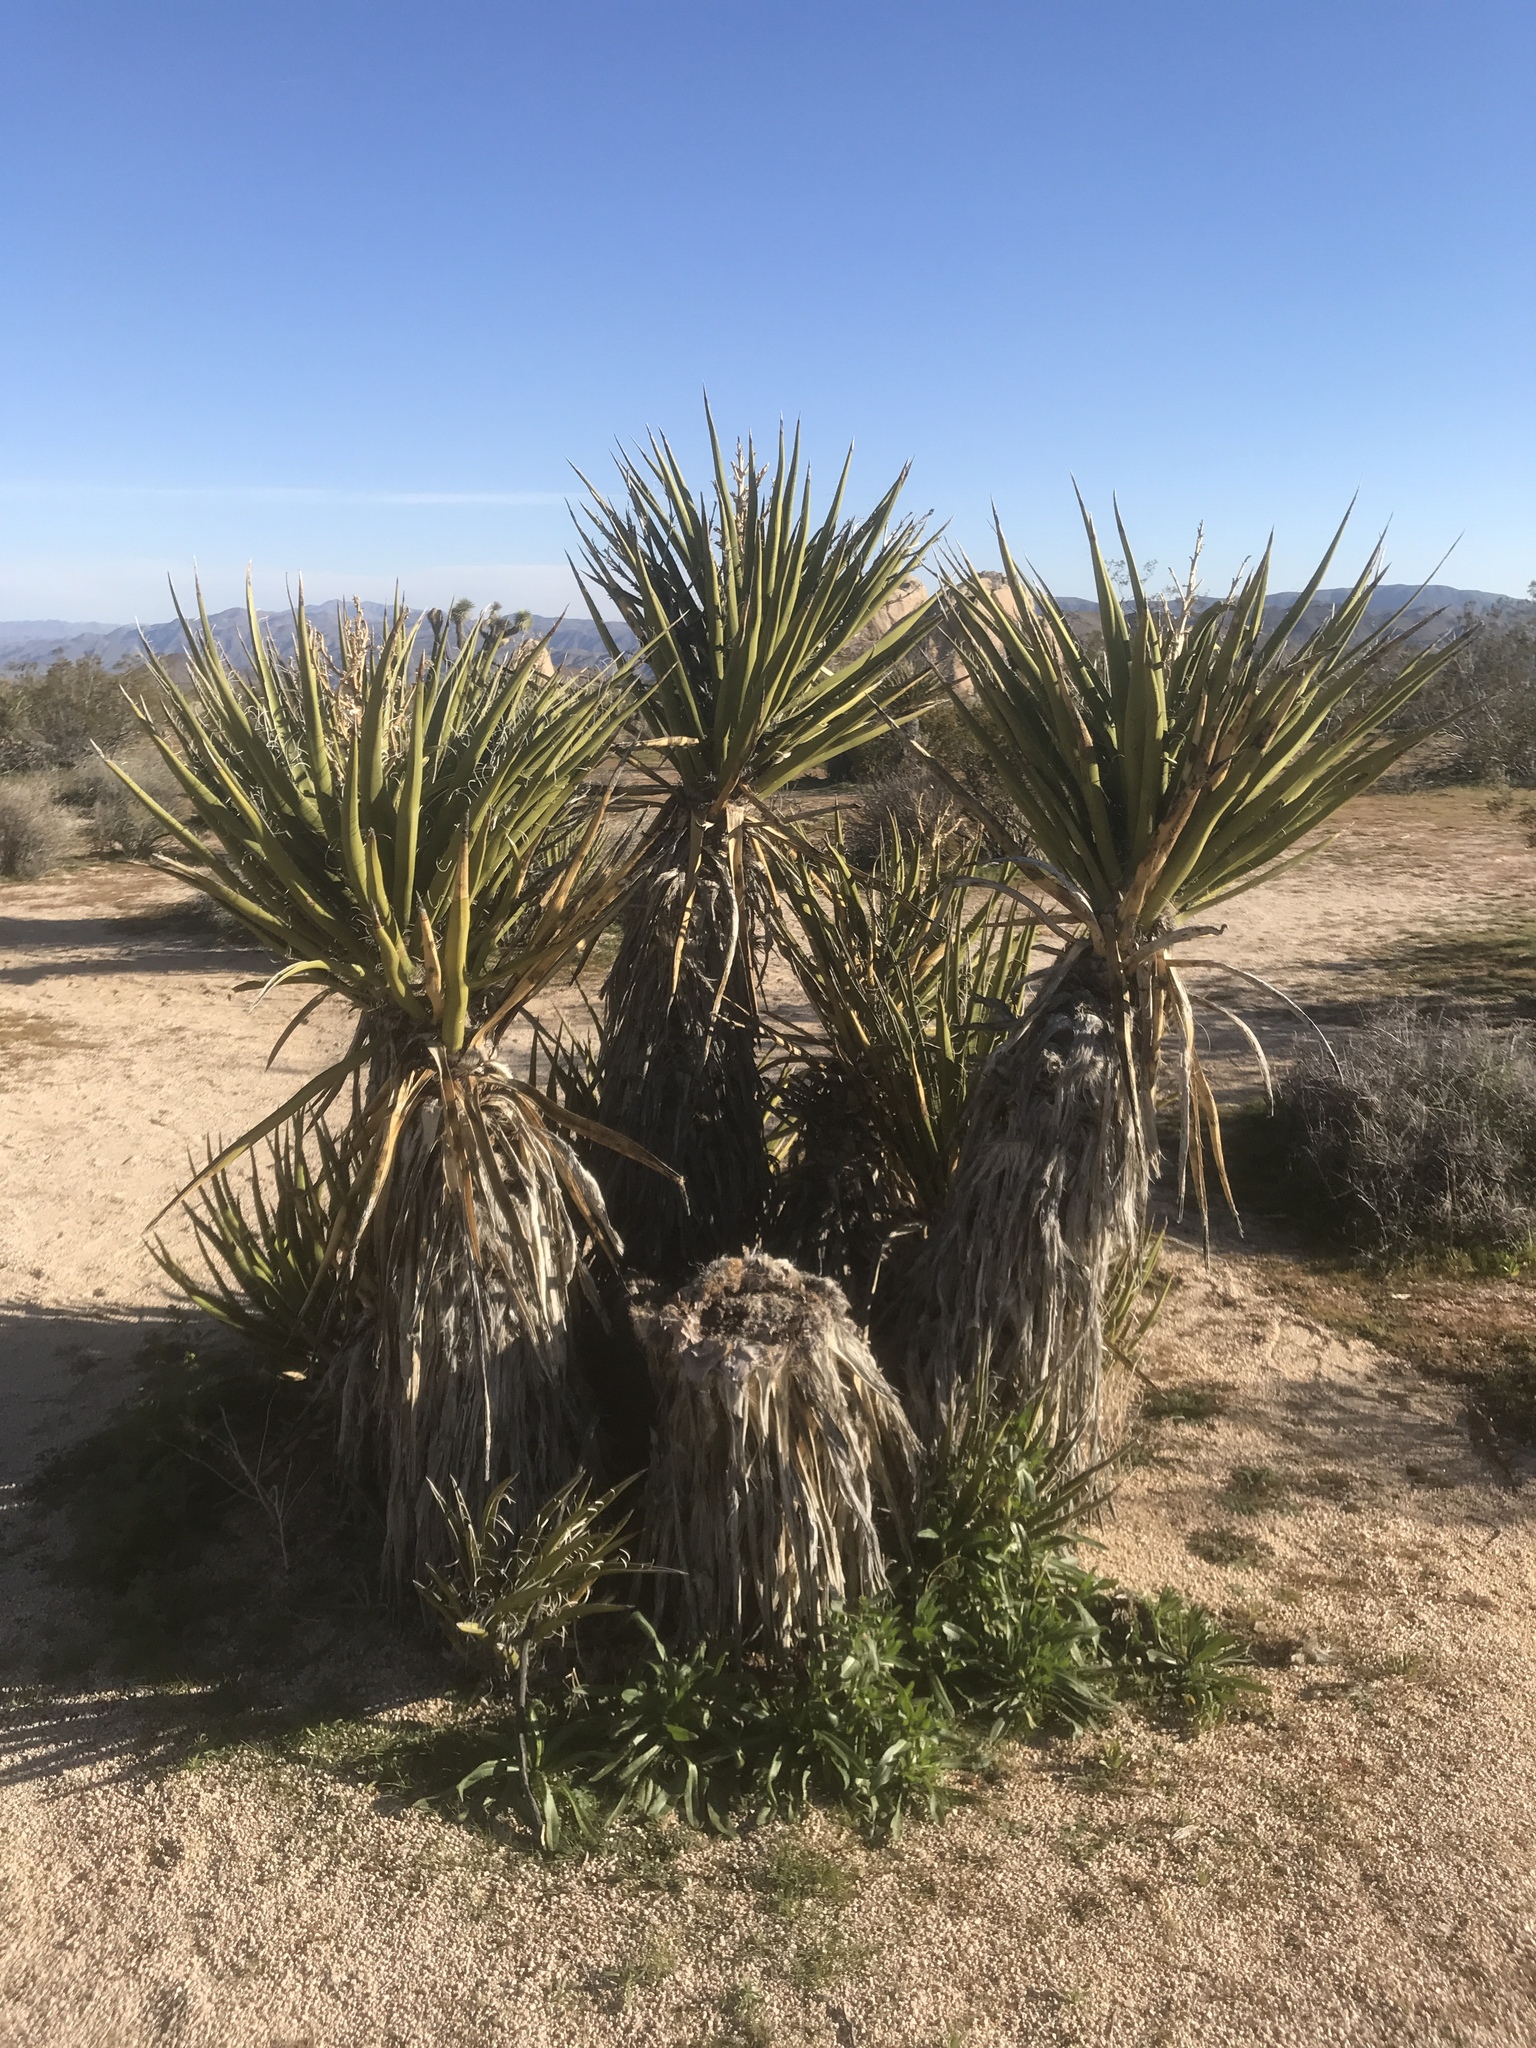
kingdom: Plantae
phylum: Tracheophyta
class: Liliopsida
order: Asparagales
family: Asparagaceae
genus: Yucca
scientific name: Yucca schidigera
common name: Mojave yucca
